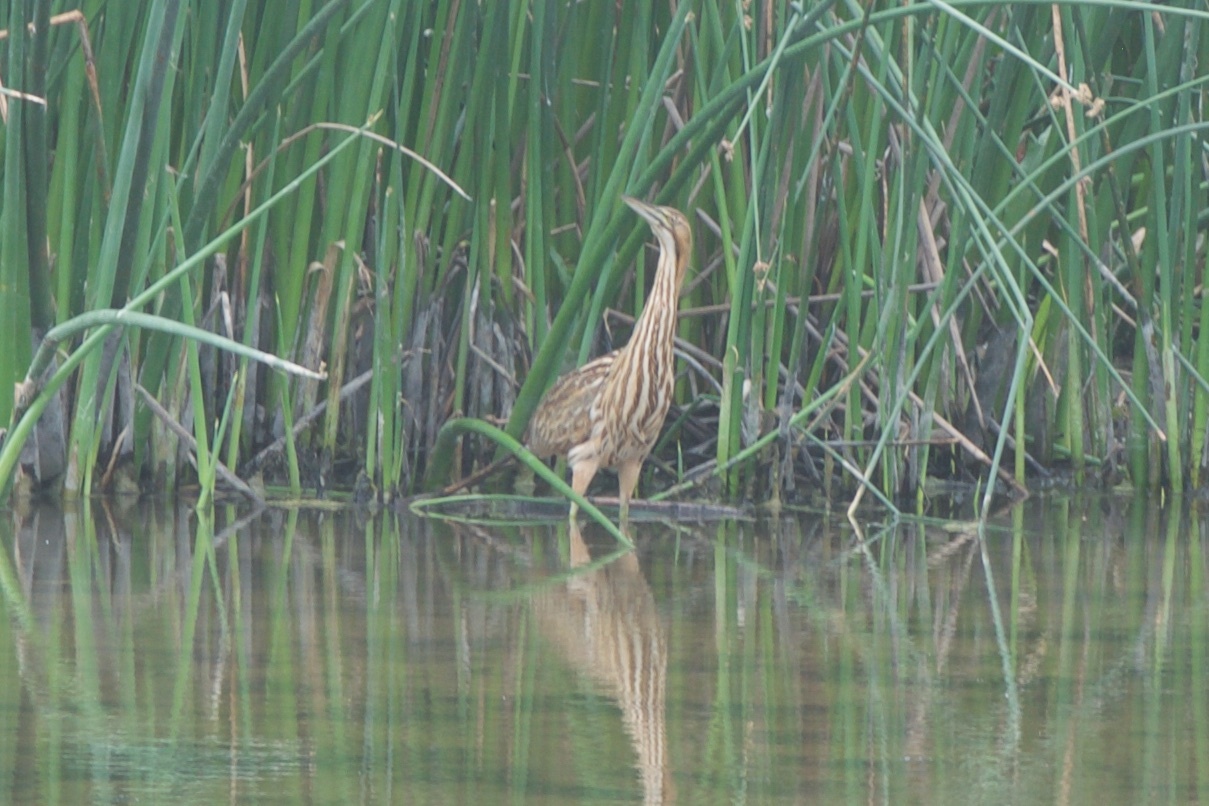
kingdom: Animalia
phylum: Chordata
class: Aves
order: Pelecaniformes
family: Ardeidae
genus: Botaurus
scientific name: Botaurus lentiginosus
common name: American bittern
